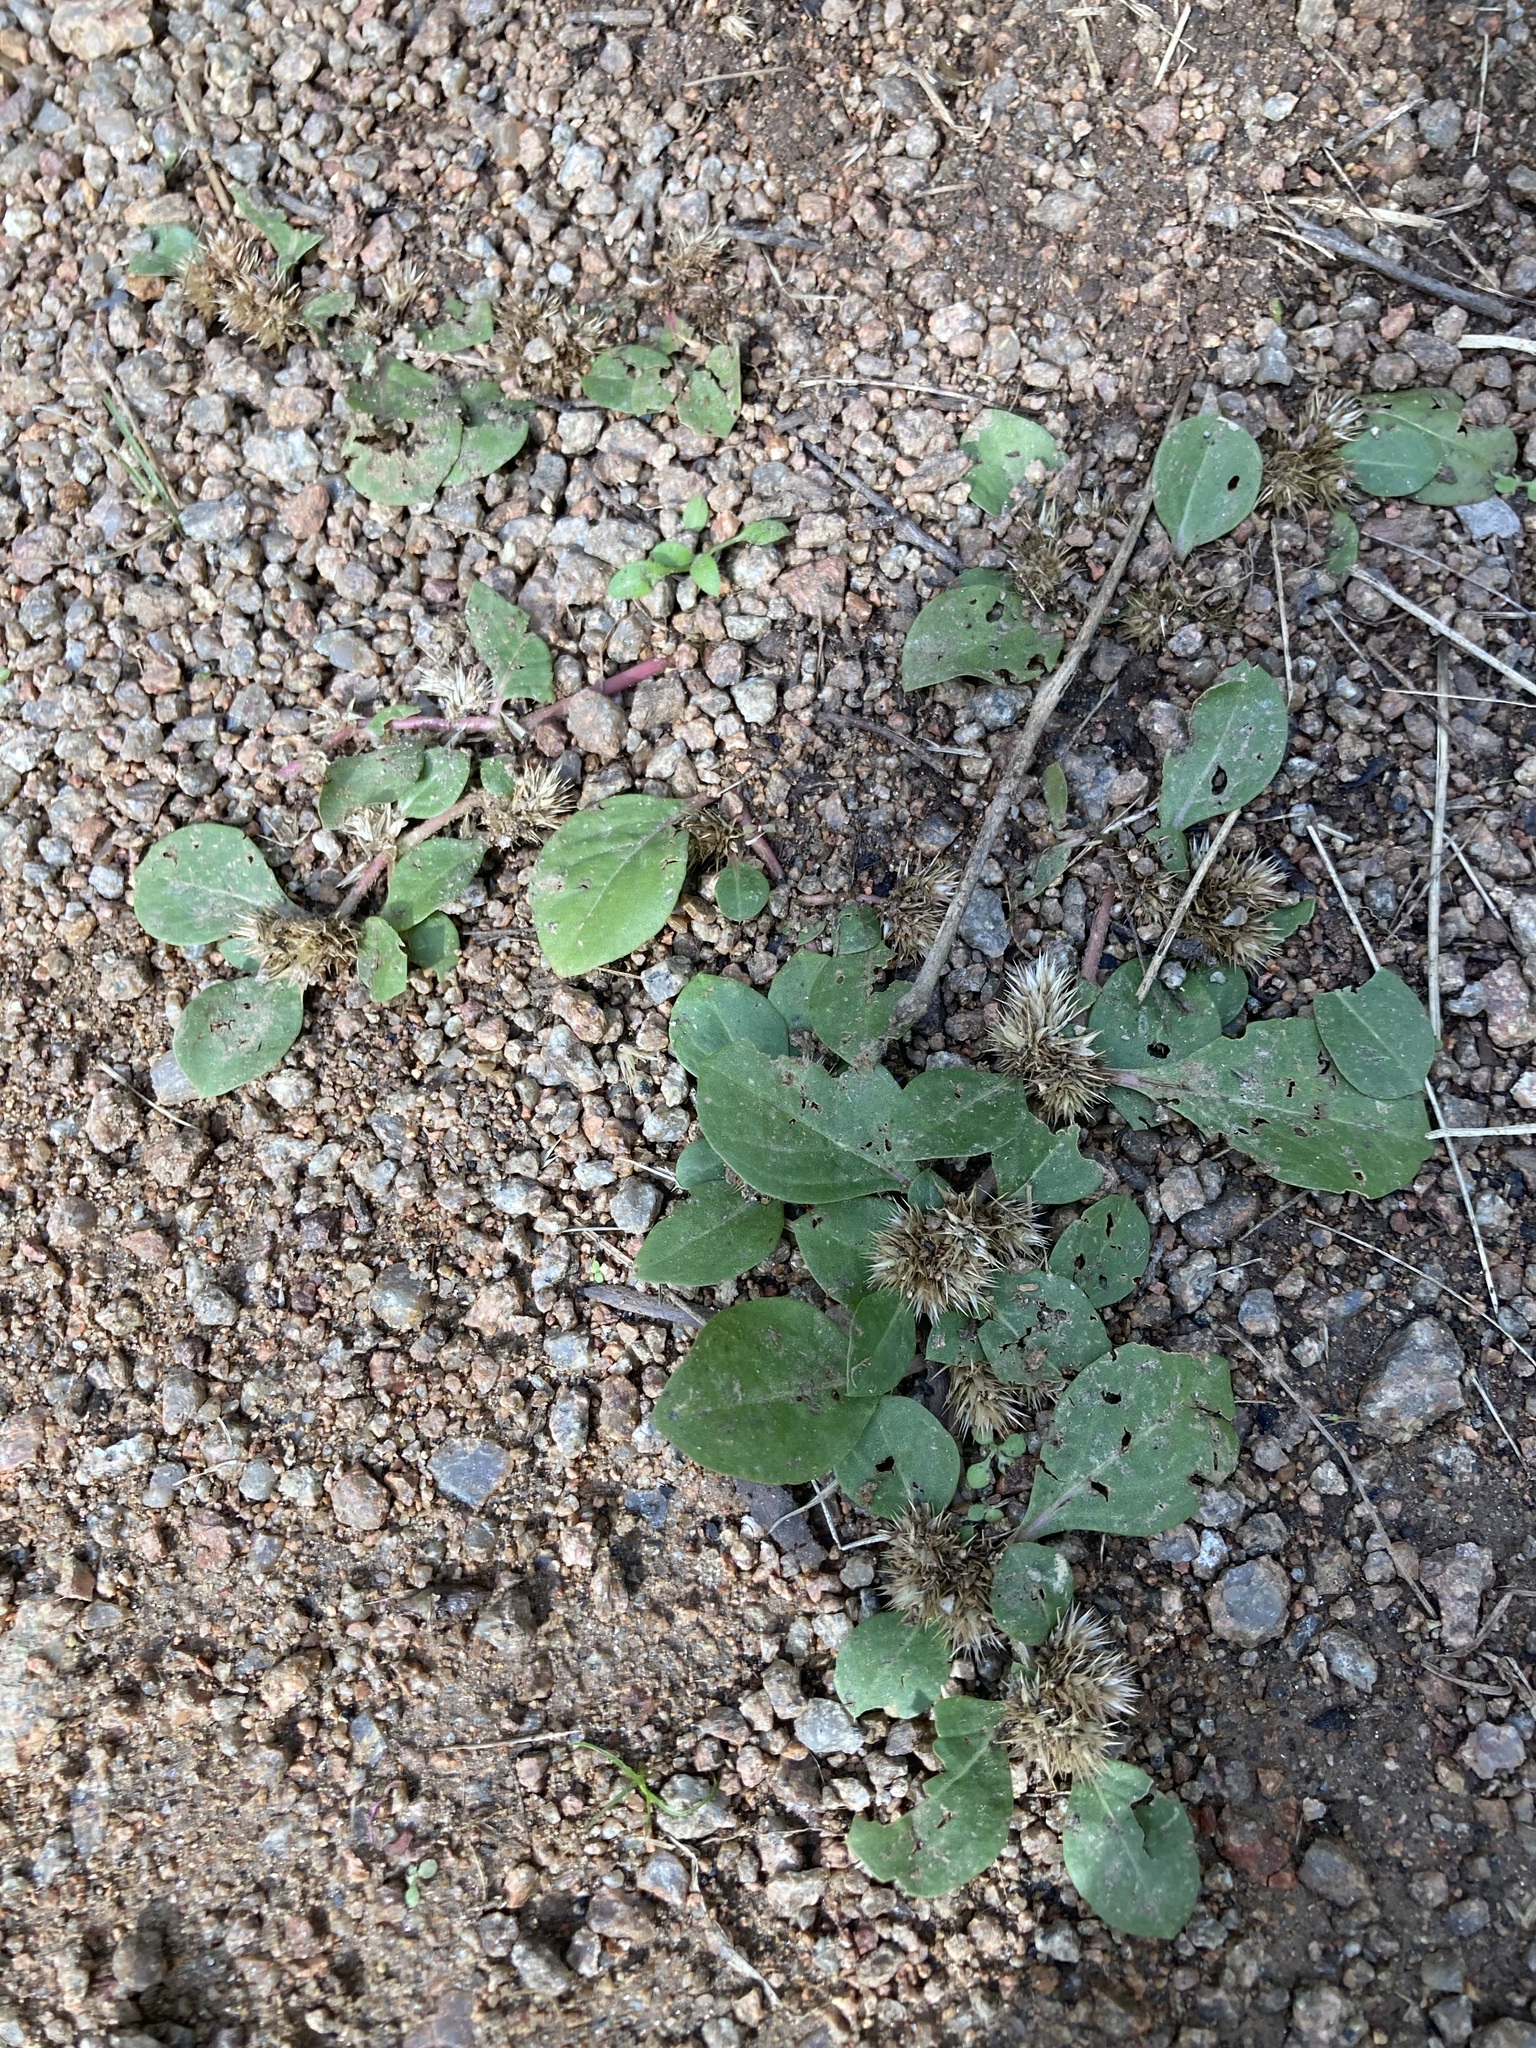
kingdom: Plantae
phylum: Tracheophyta
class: Magnoliopsida
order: Caryophyllales
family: Amaranthaceae
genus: Alternanthera
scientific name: Alternanthera pungens
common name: Khakiweed
